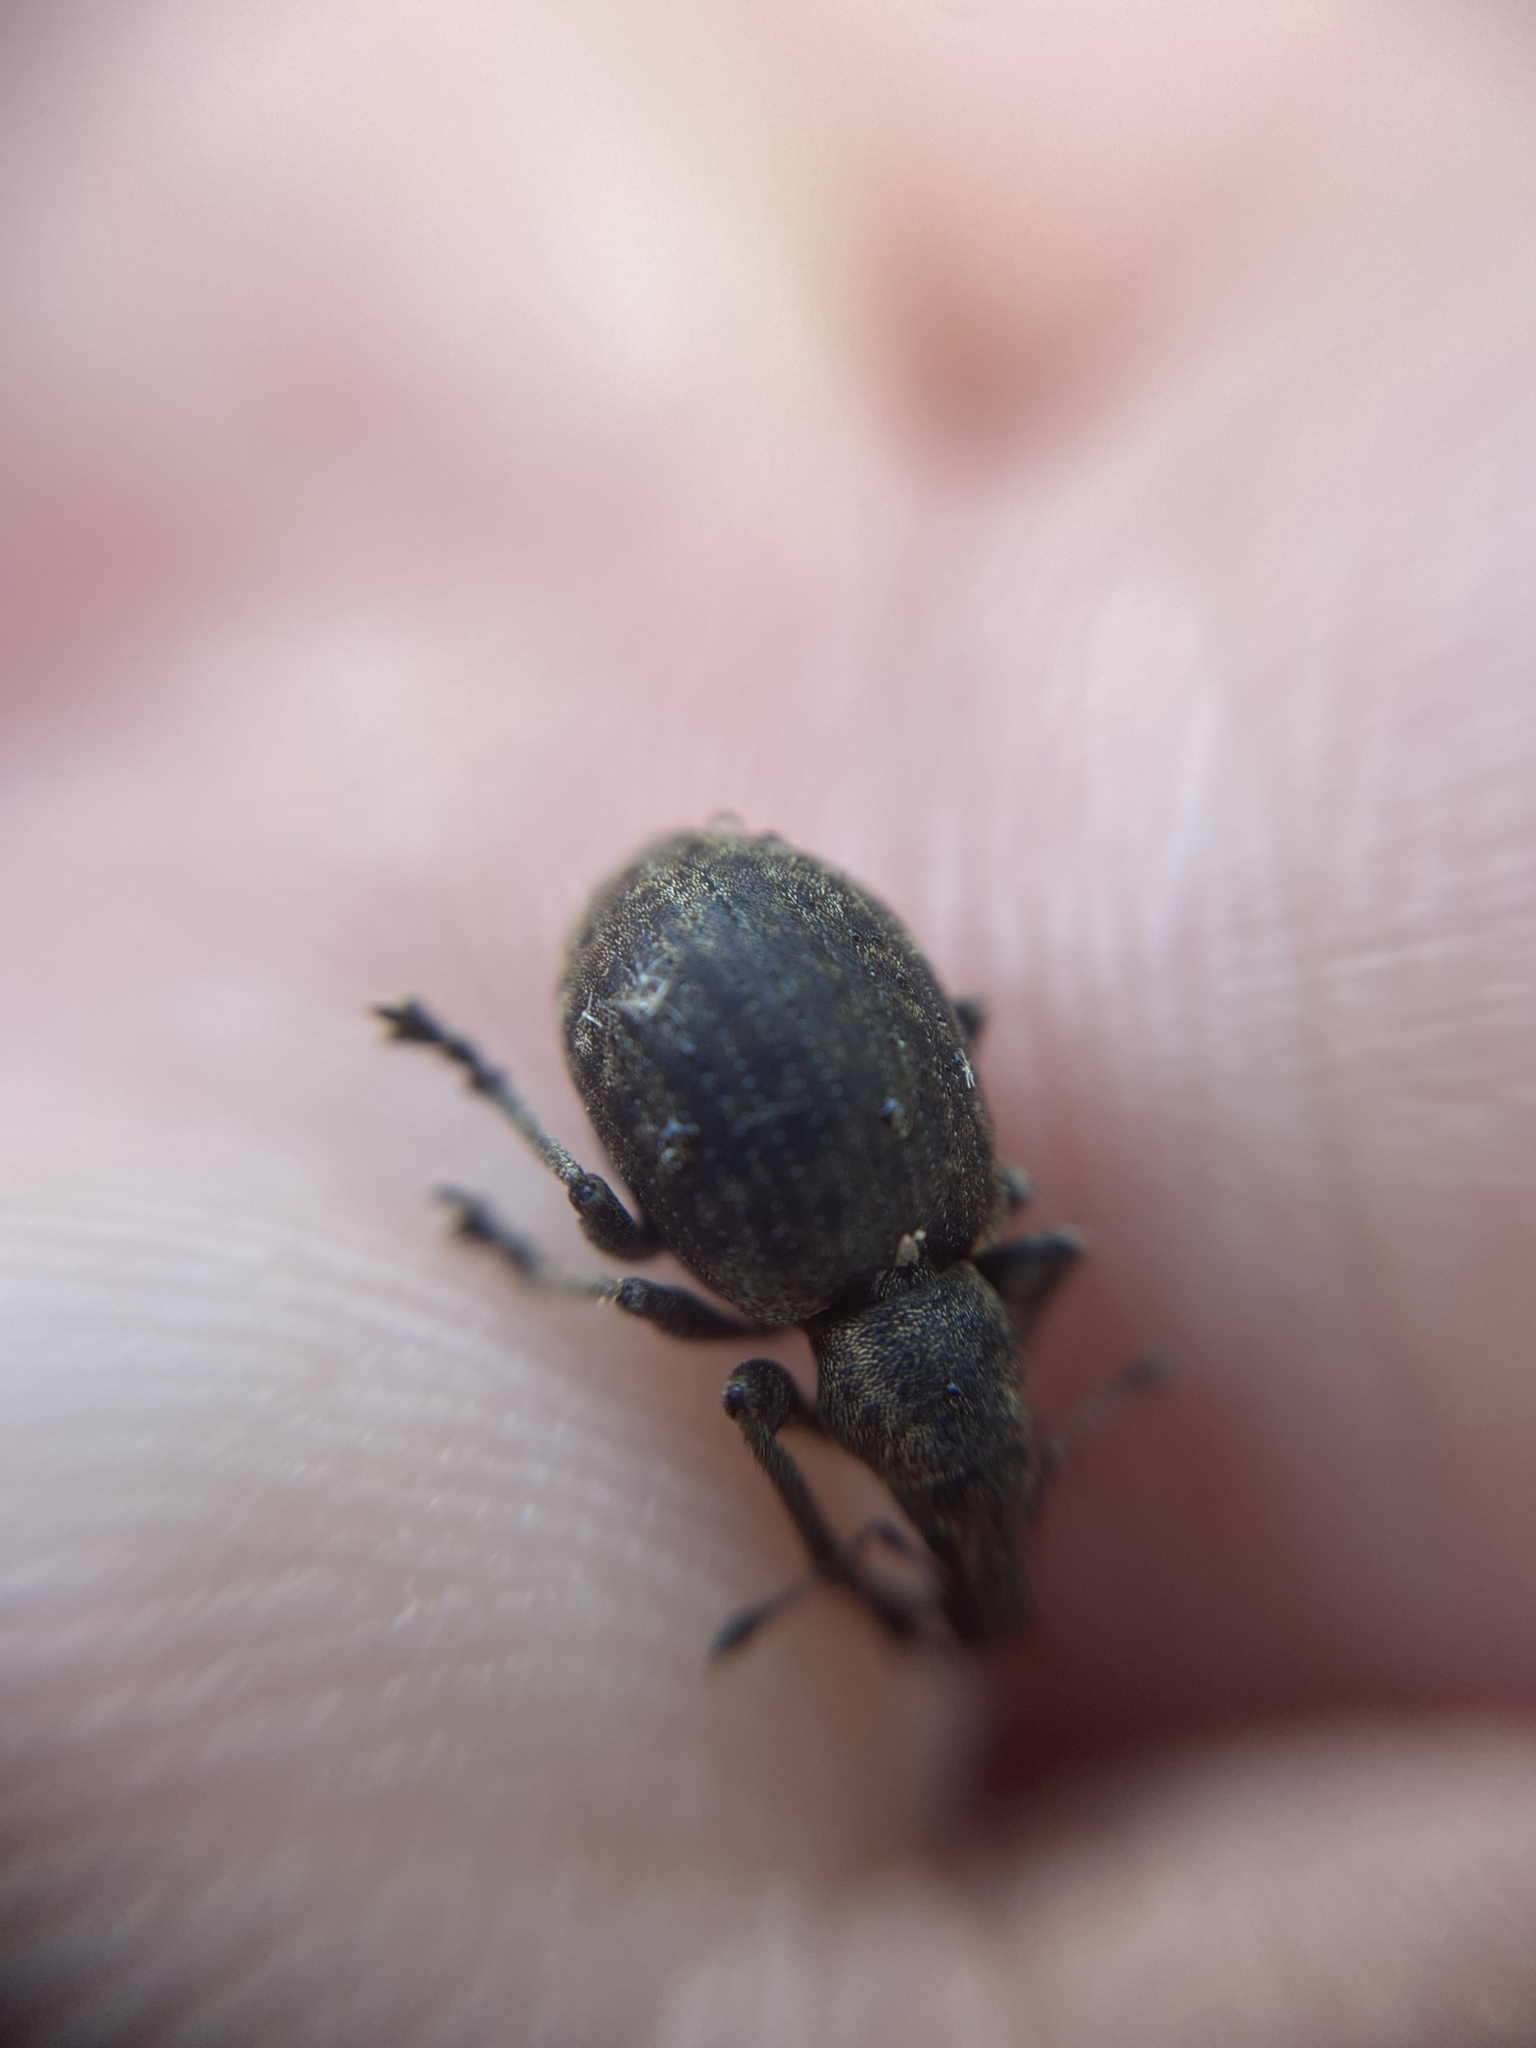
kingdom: Animalia
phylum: Arthropoda
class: Insecta
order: Coleoptera
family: Curculionidae
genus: Liophloeus
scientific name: Liophloeus tessulatus
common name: Weevil
